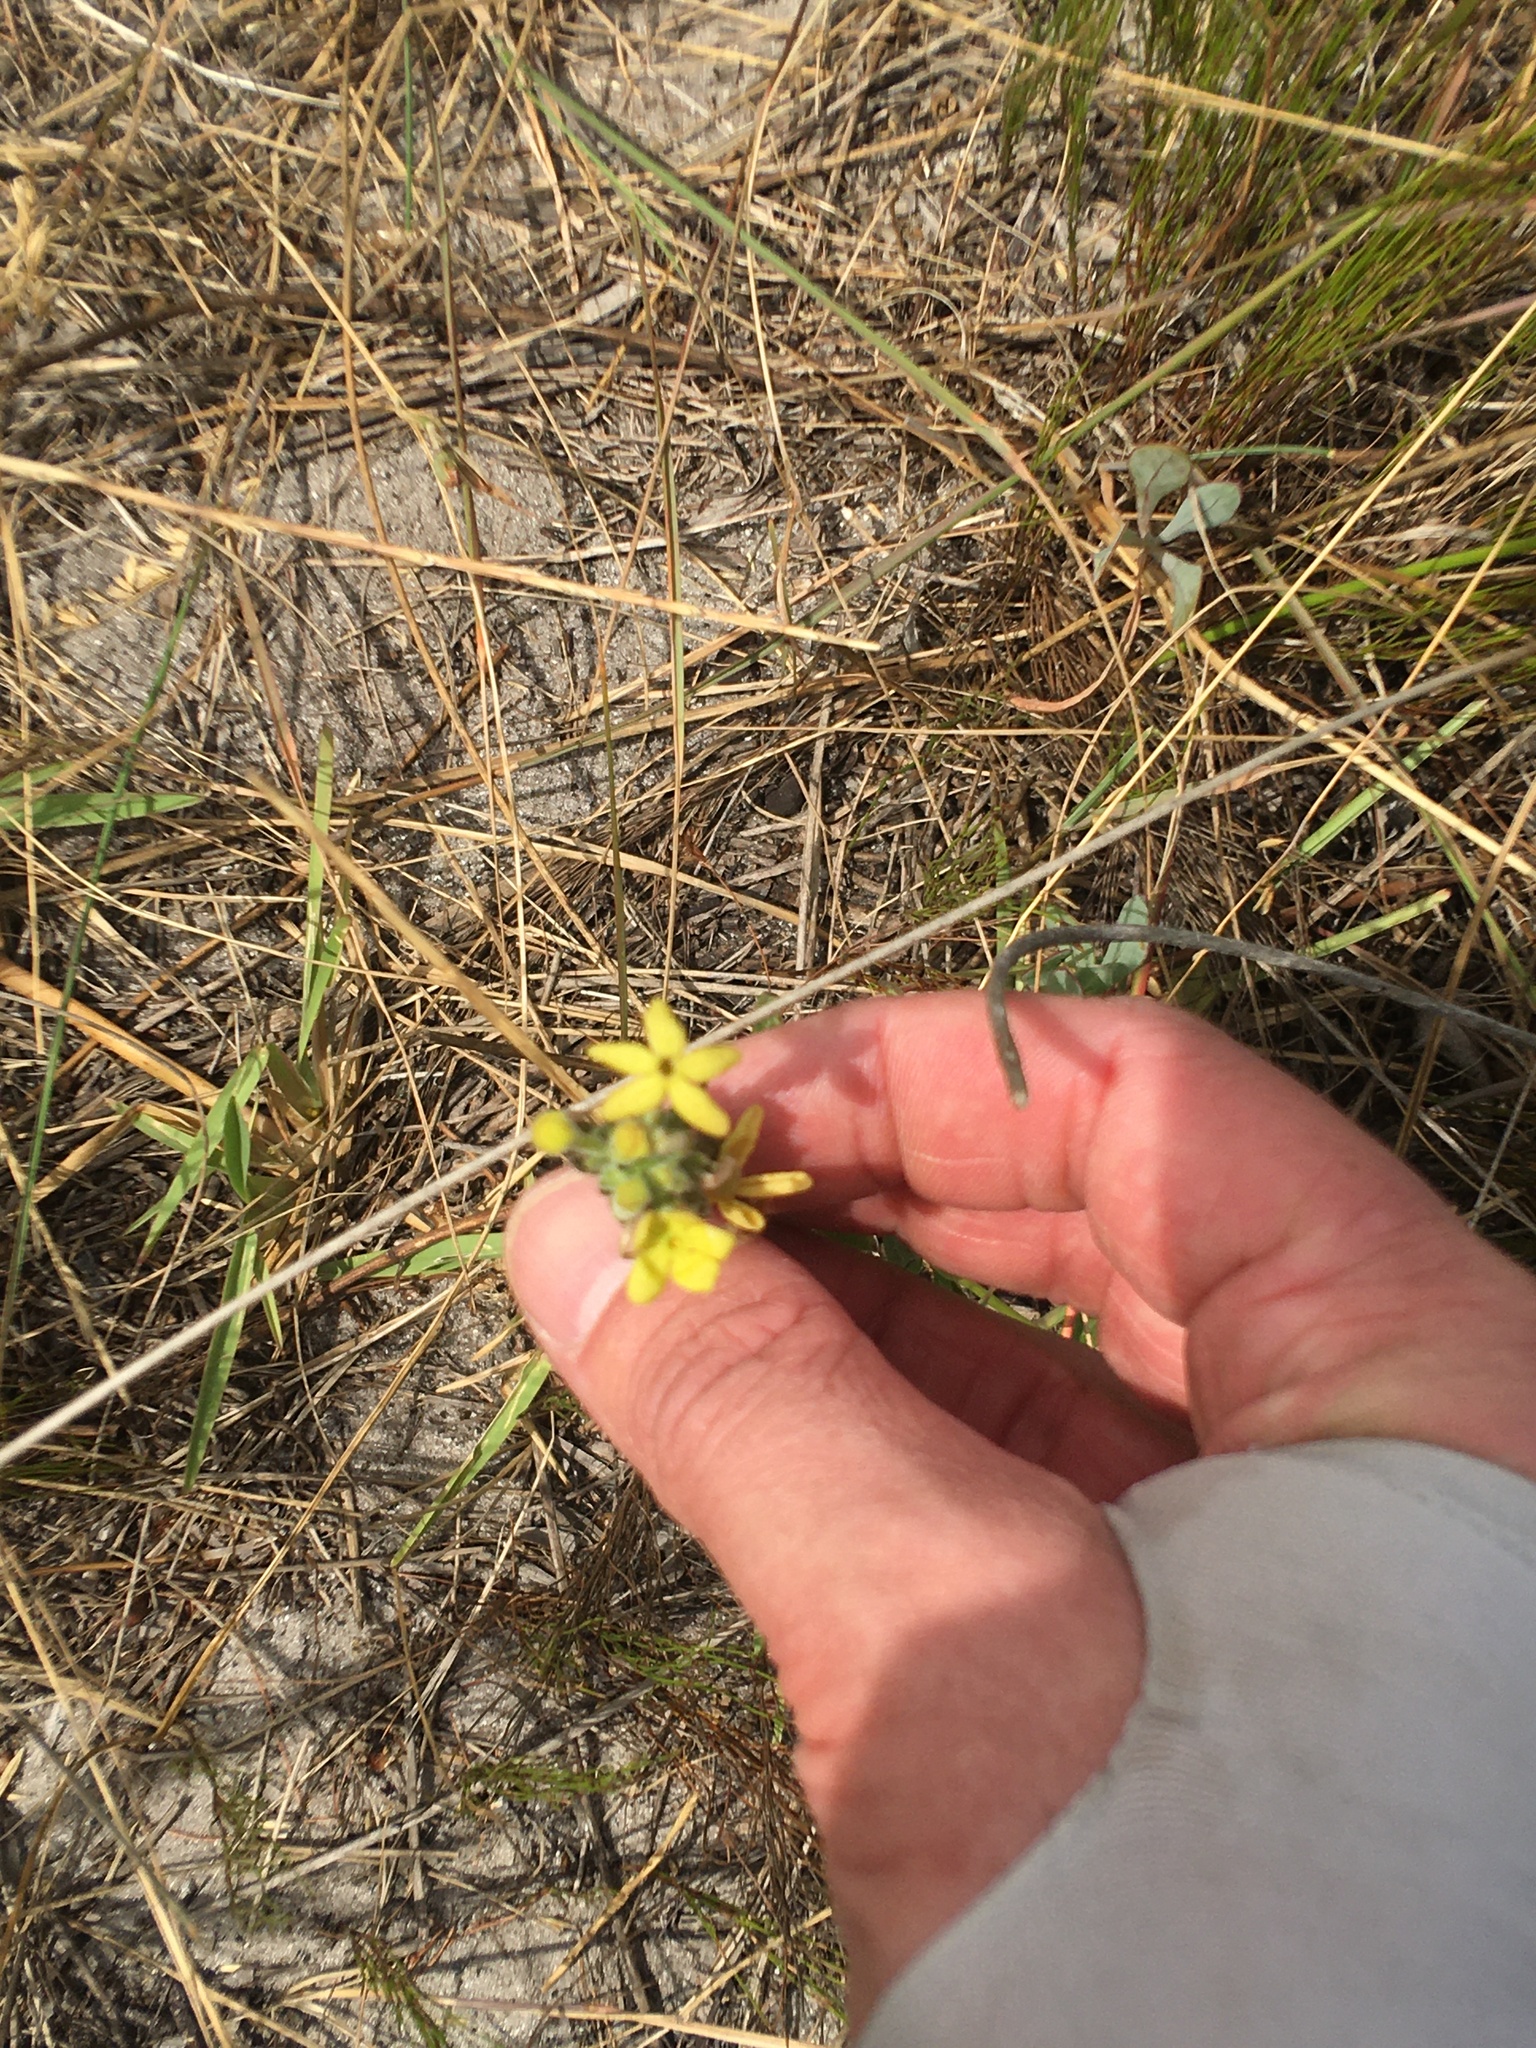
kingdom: Plantae
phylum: Tracheophyta
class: Magnoliopsida
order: Lamiales
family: Scrophulariaceae
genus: Lyperia
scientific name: Lyperia lychnidea
